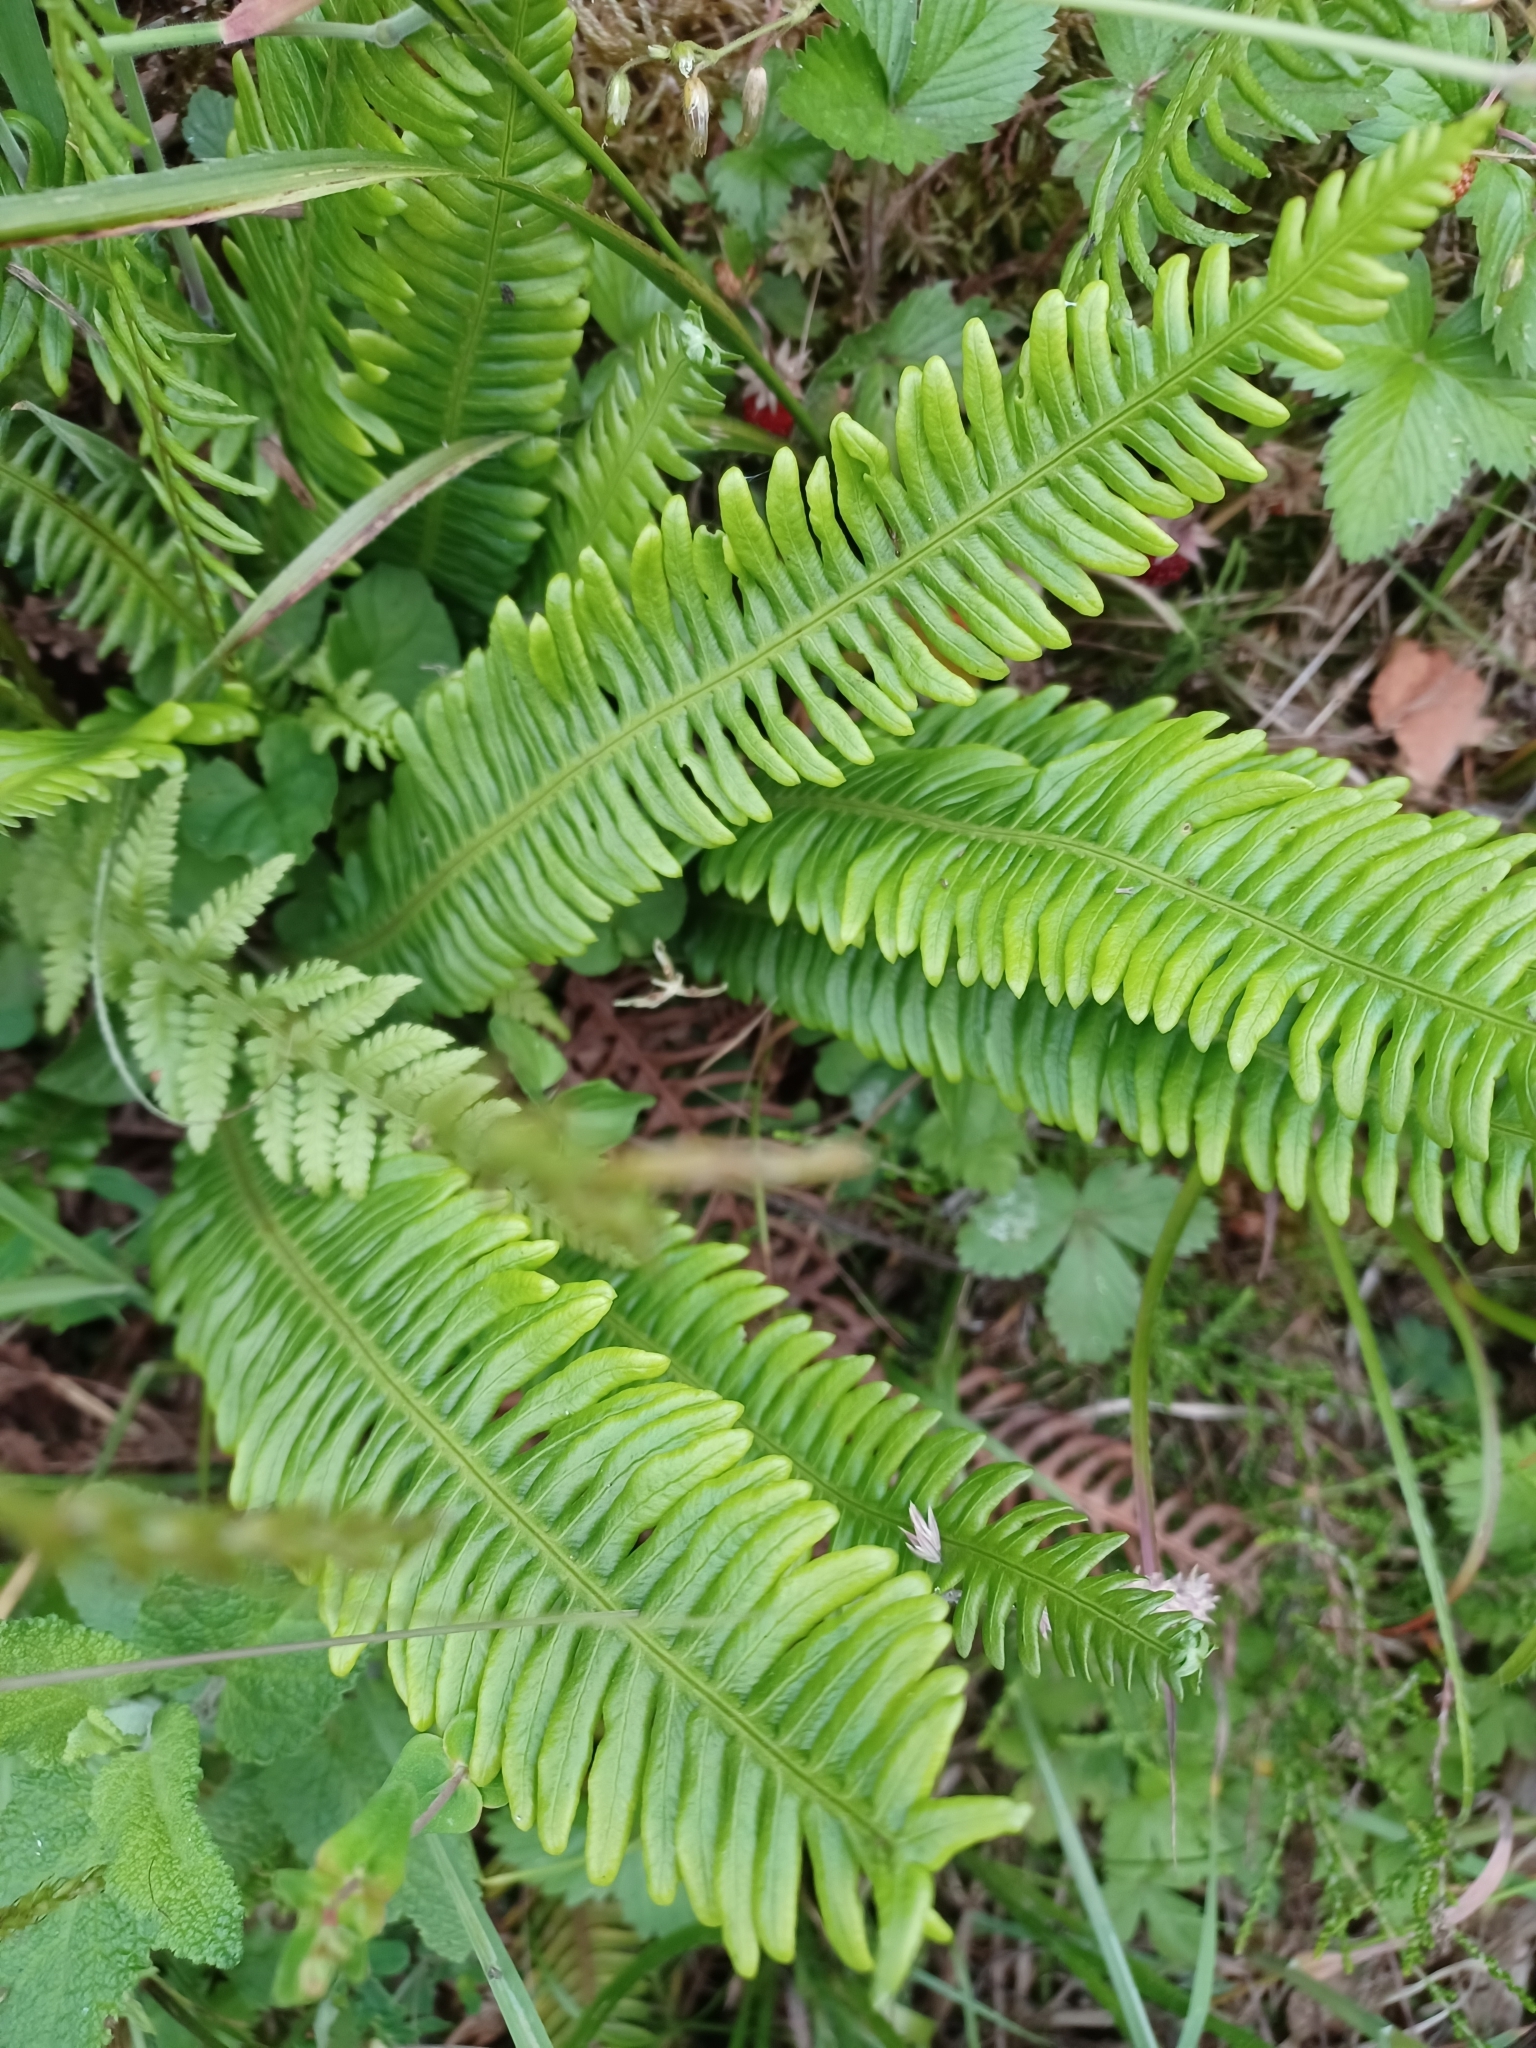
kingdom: Plantae
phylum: Tracheophyta
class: Polypodiopsida
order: Polypodiales
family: Blechnaceae
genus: Struthiopteris
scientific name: Struthiopteris spicant
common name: Deer fern
